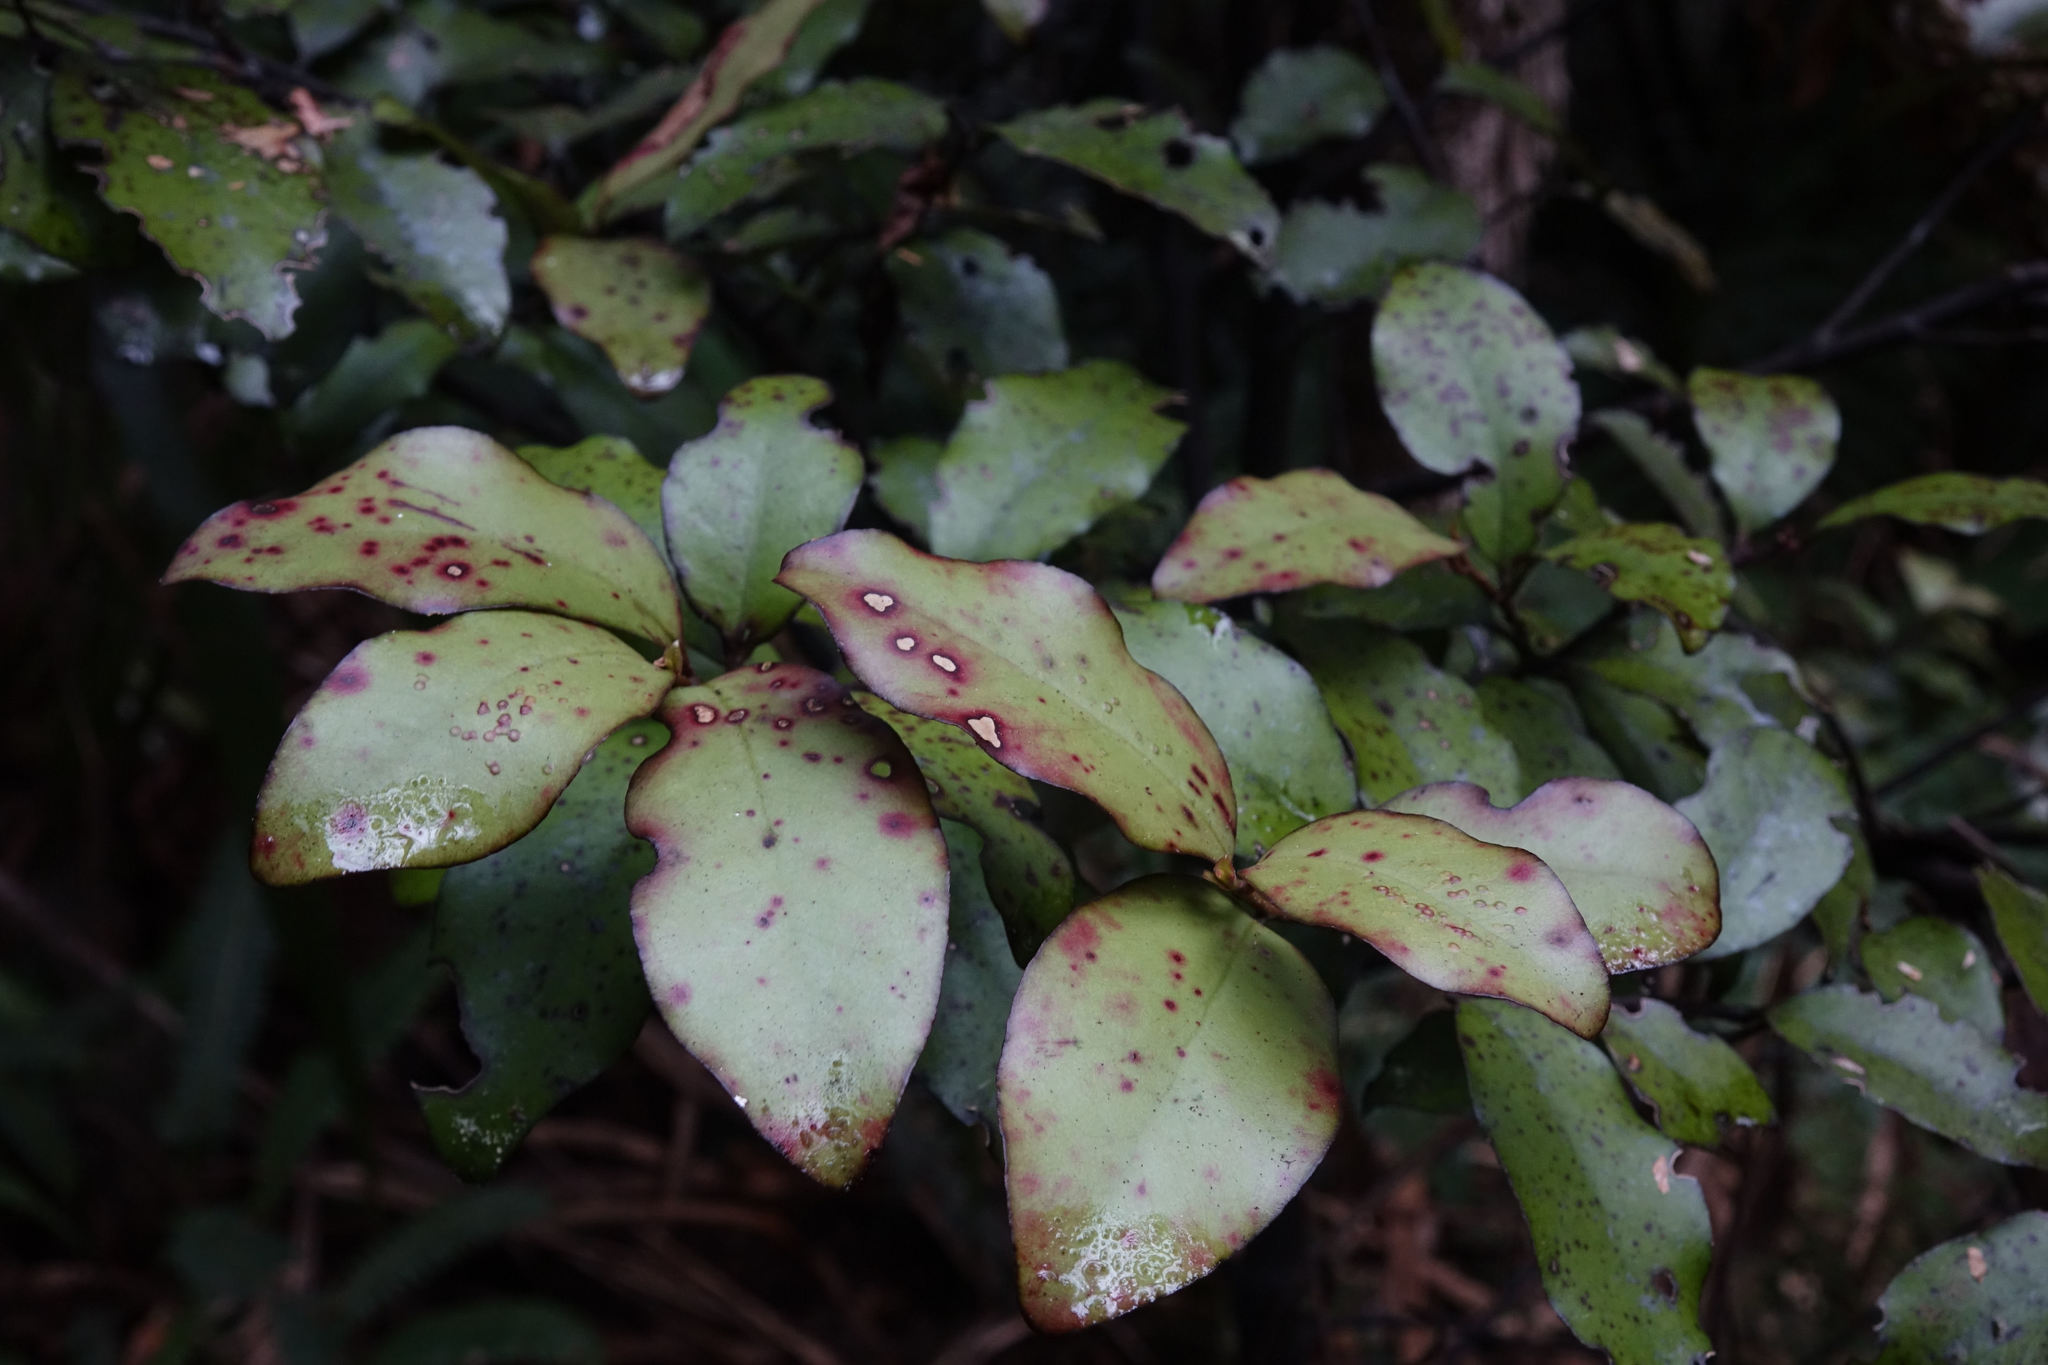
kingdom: Plantae
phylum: Tracheophyta
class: Magnoliopsida
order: Canellales
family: Winteraceae
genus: Pseudowintera
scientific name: Pseudowintera colorata
